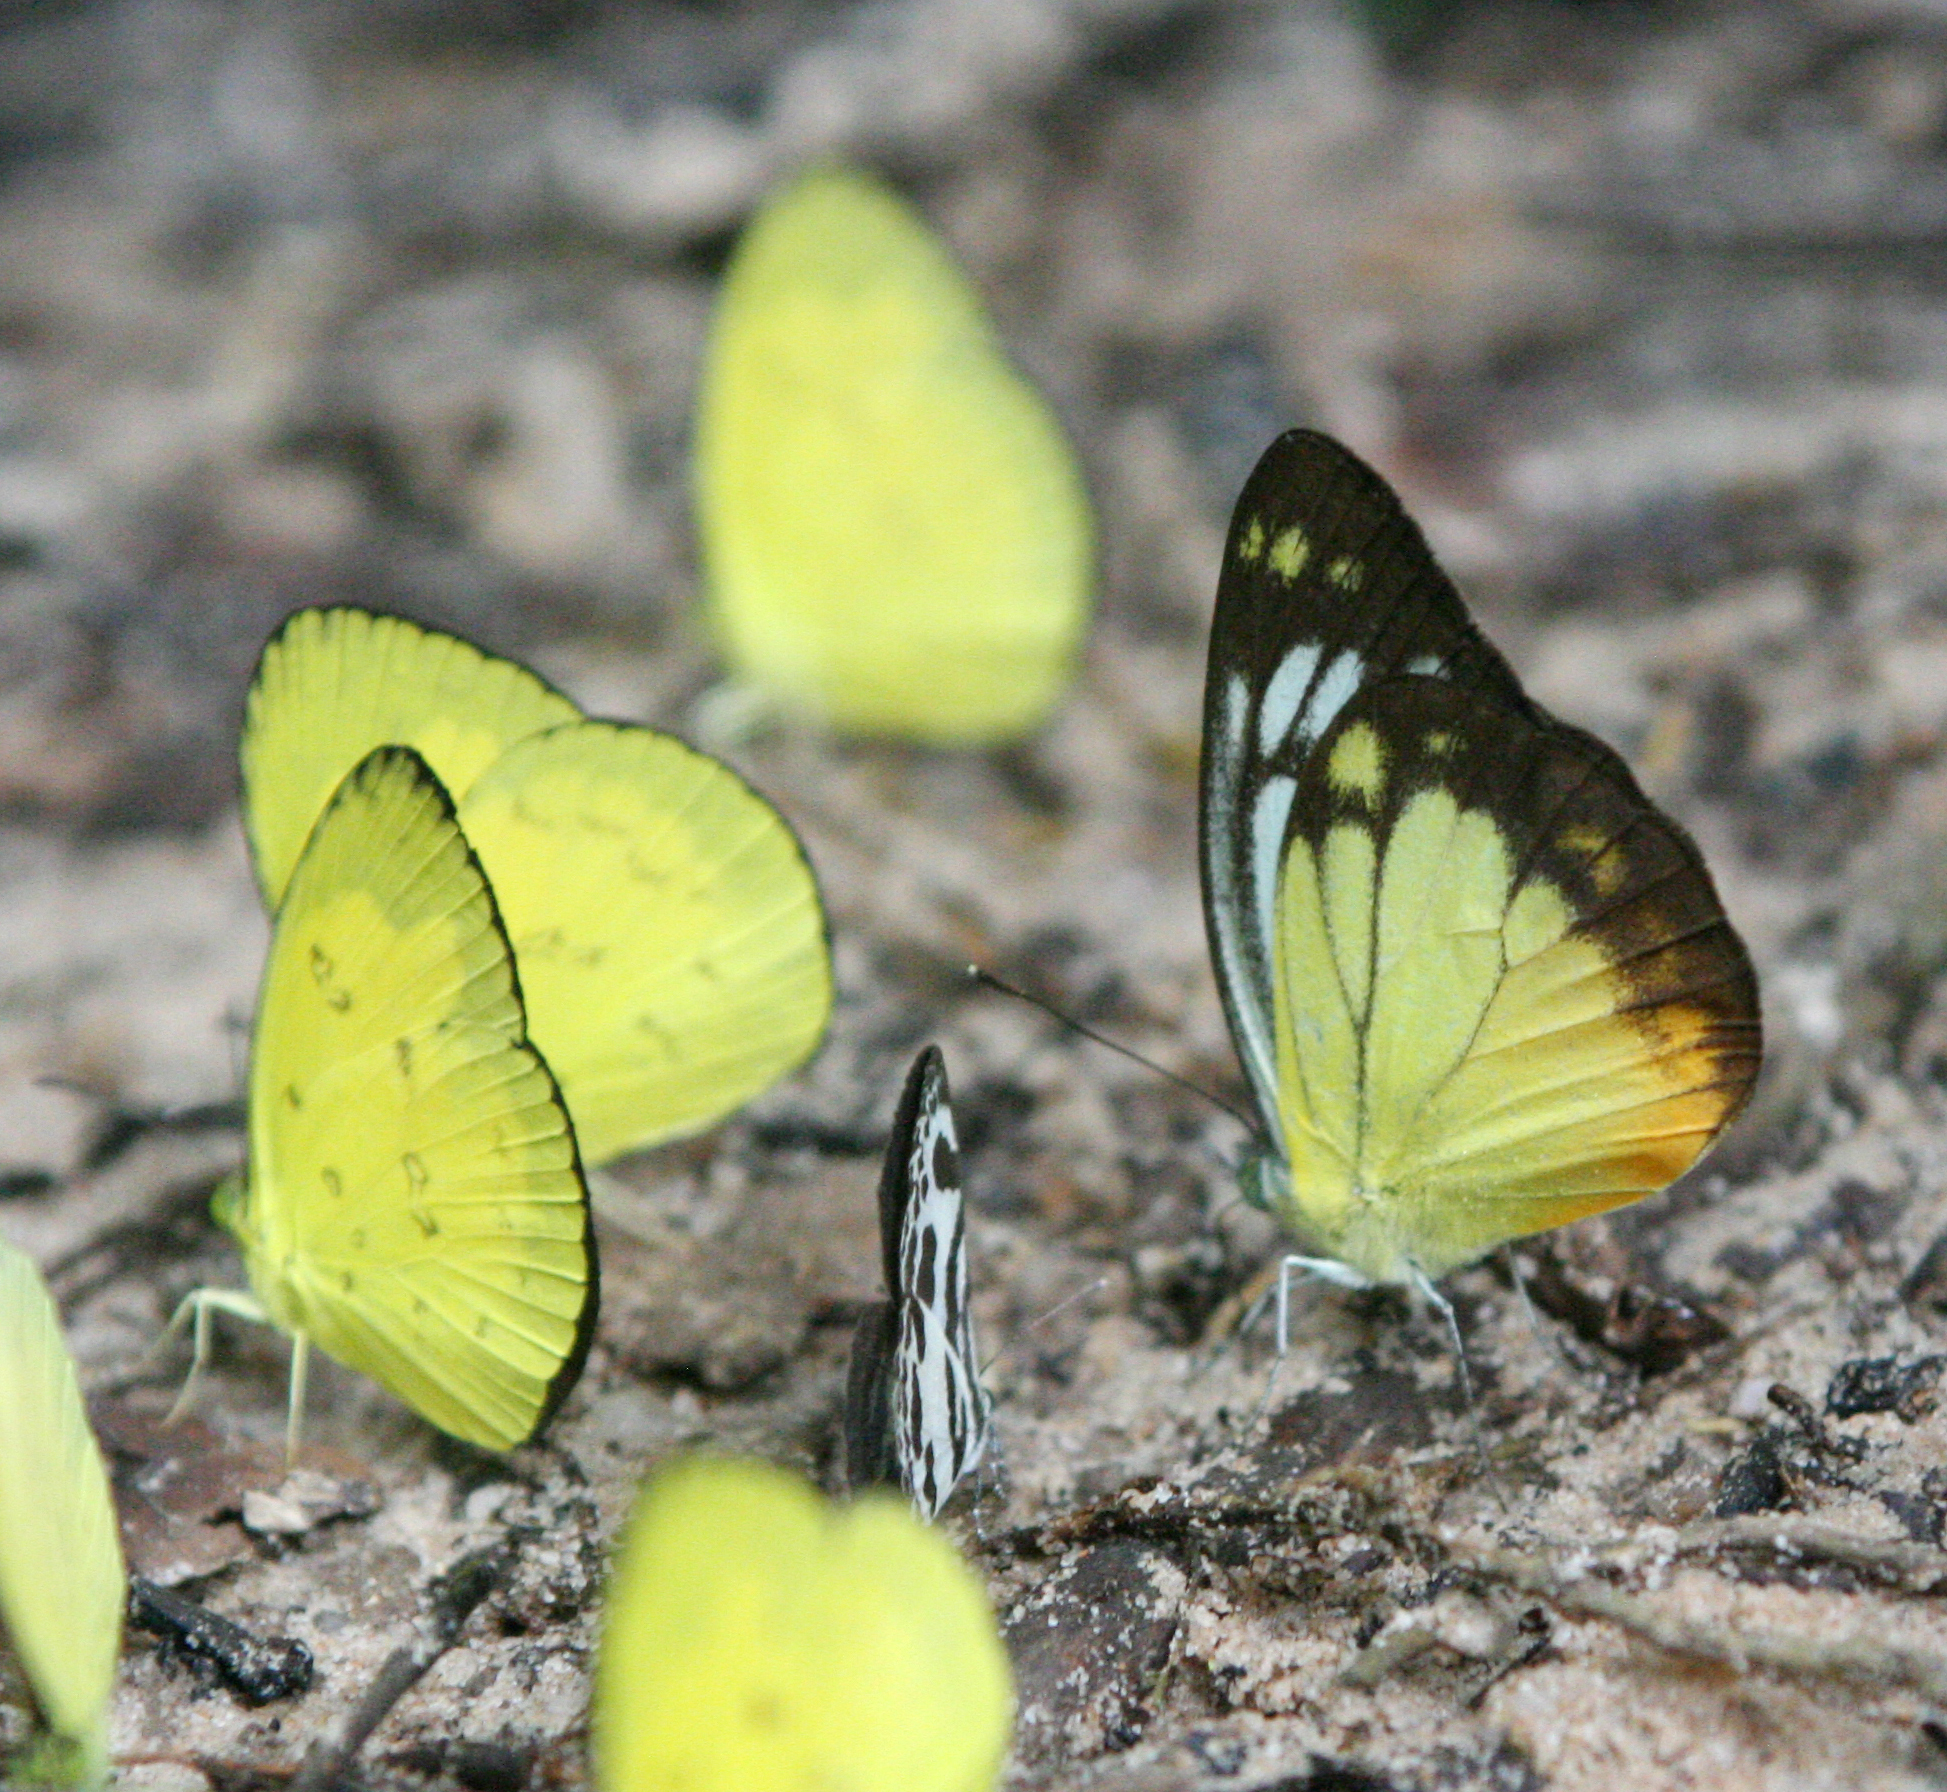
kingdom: Animalia
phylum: Arthropoda
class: Insecta
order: Lepidoptera
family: Pieridae
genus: Cepora
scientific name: Cepora iudith
